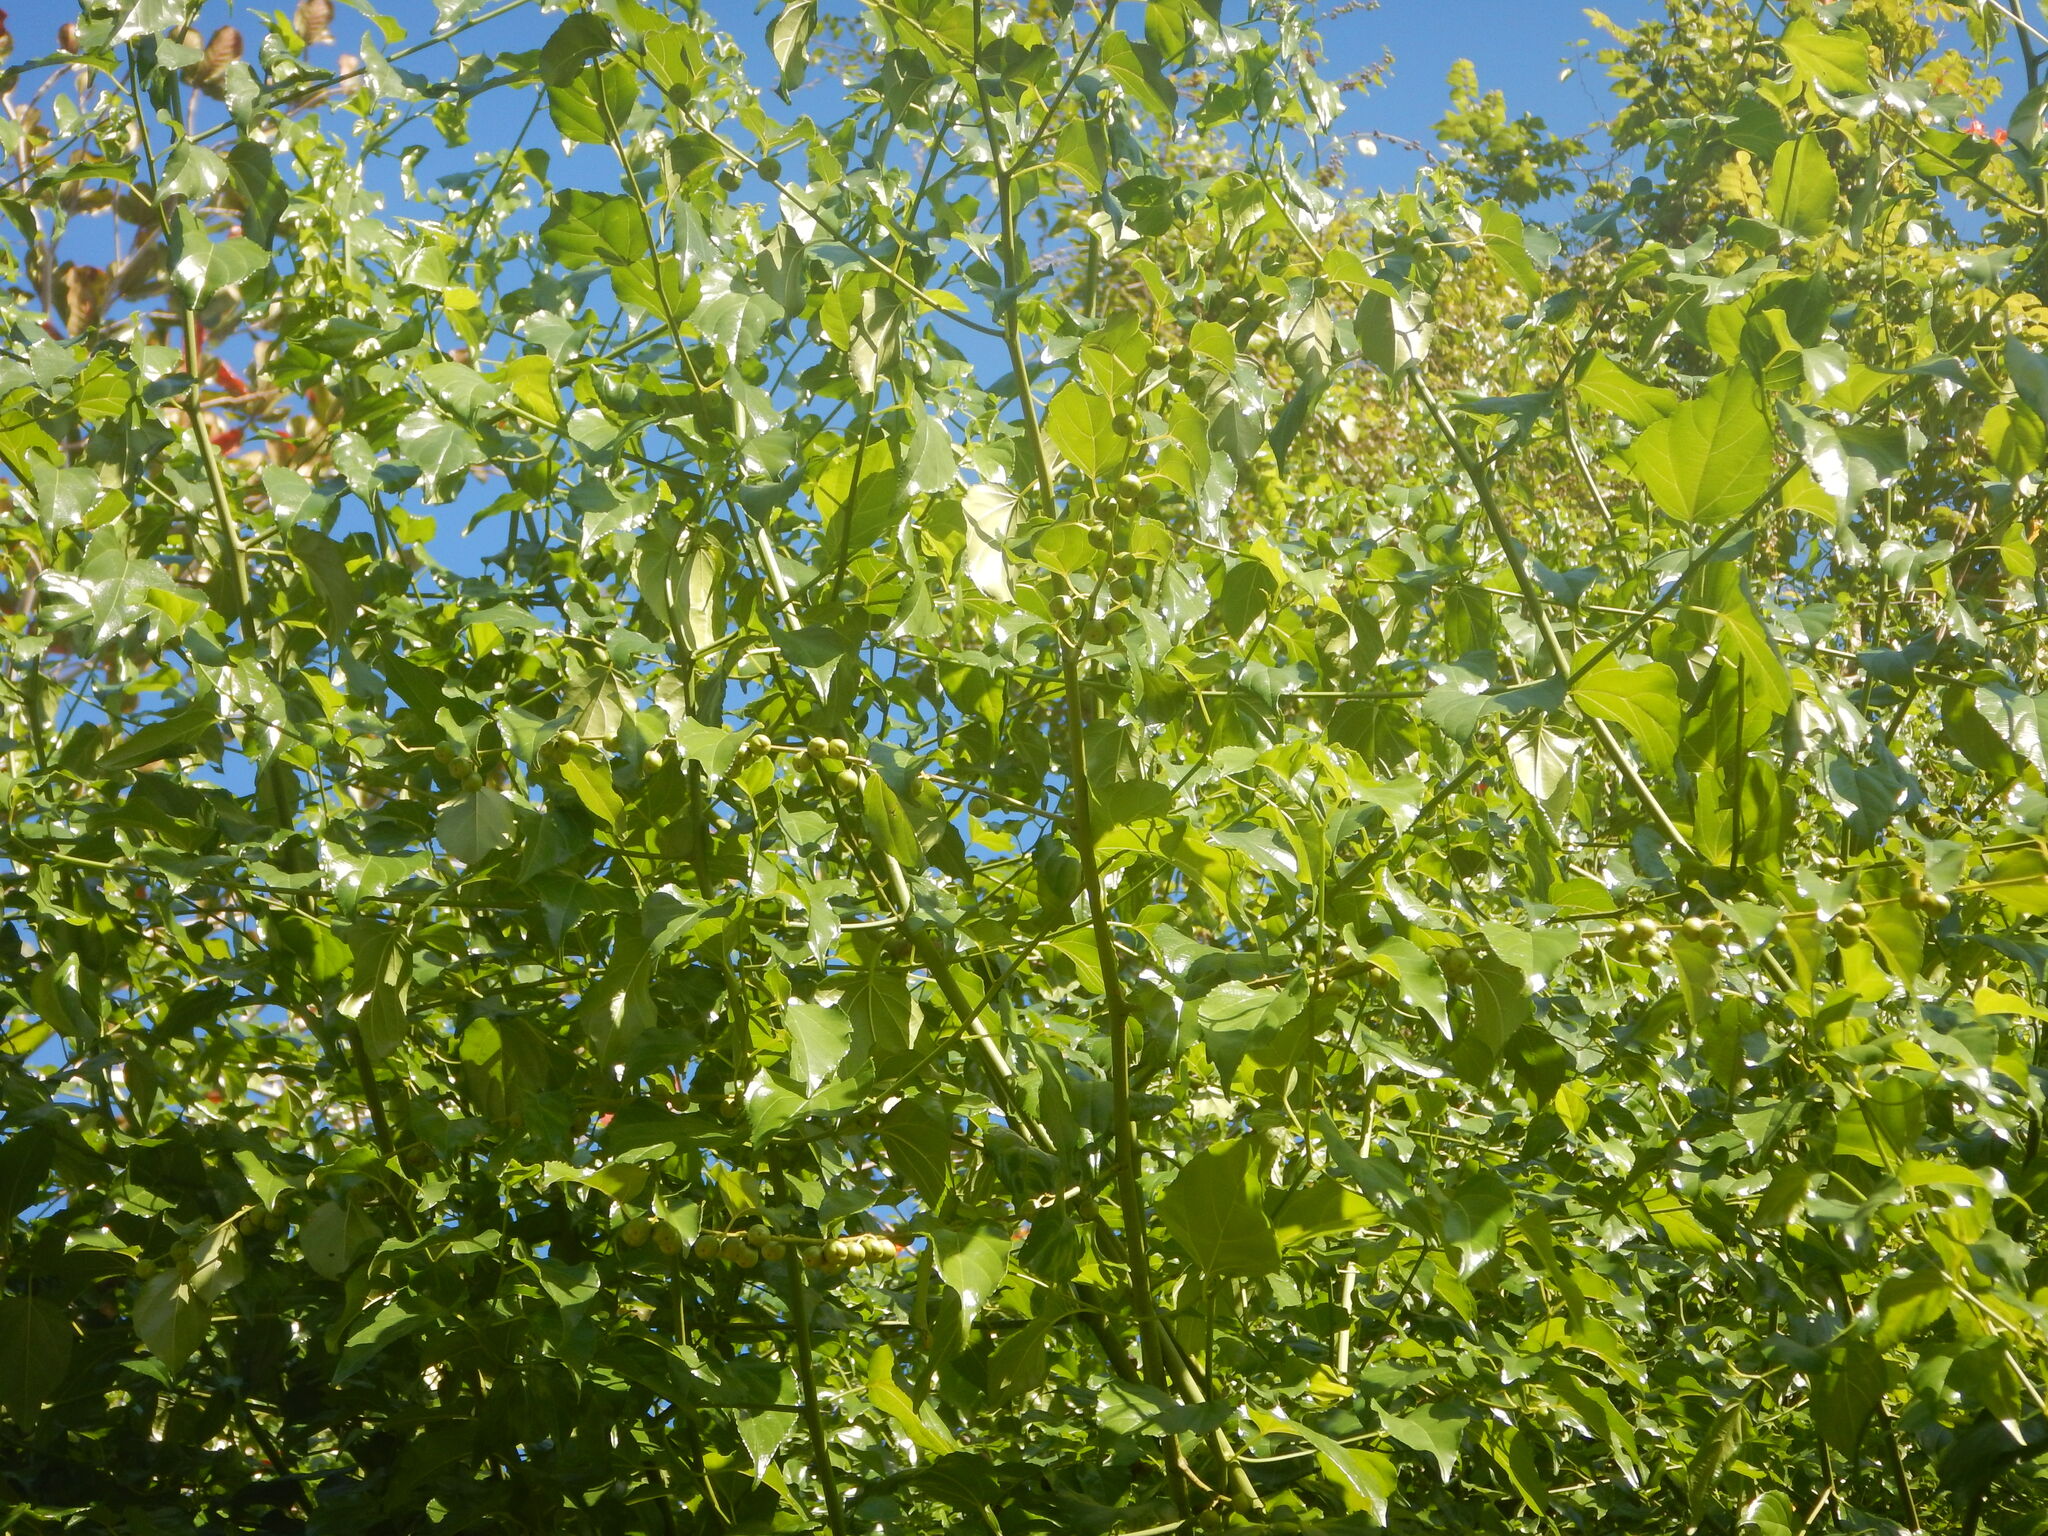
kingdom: Plantae
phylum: Tracheophyta
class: Magnoliopsida
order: Rosales
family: Rhamnaceae
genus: Colubrina
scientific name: Colubrina asiatica
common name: Asian nakedwood
